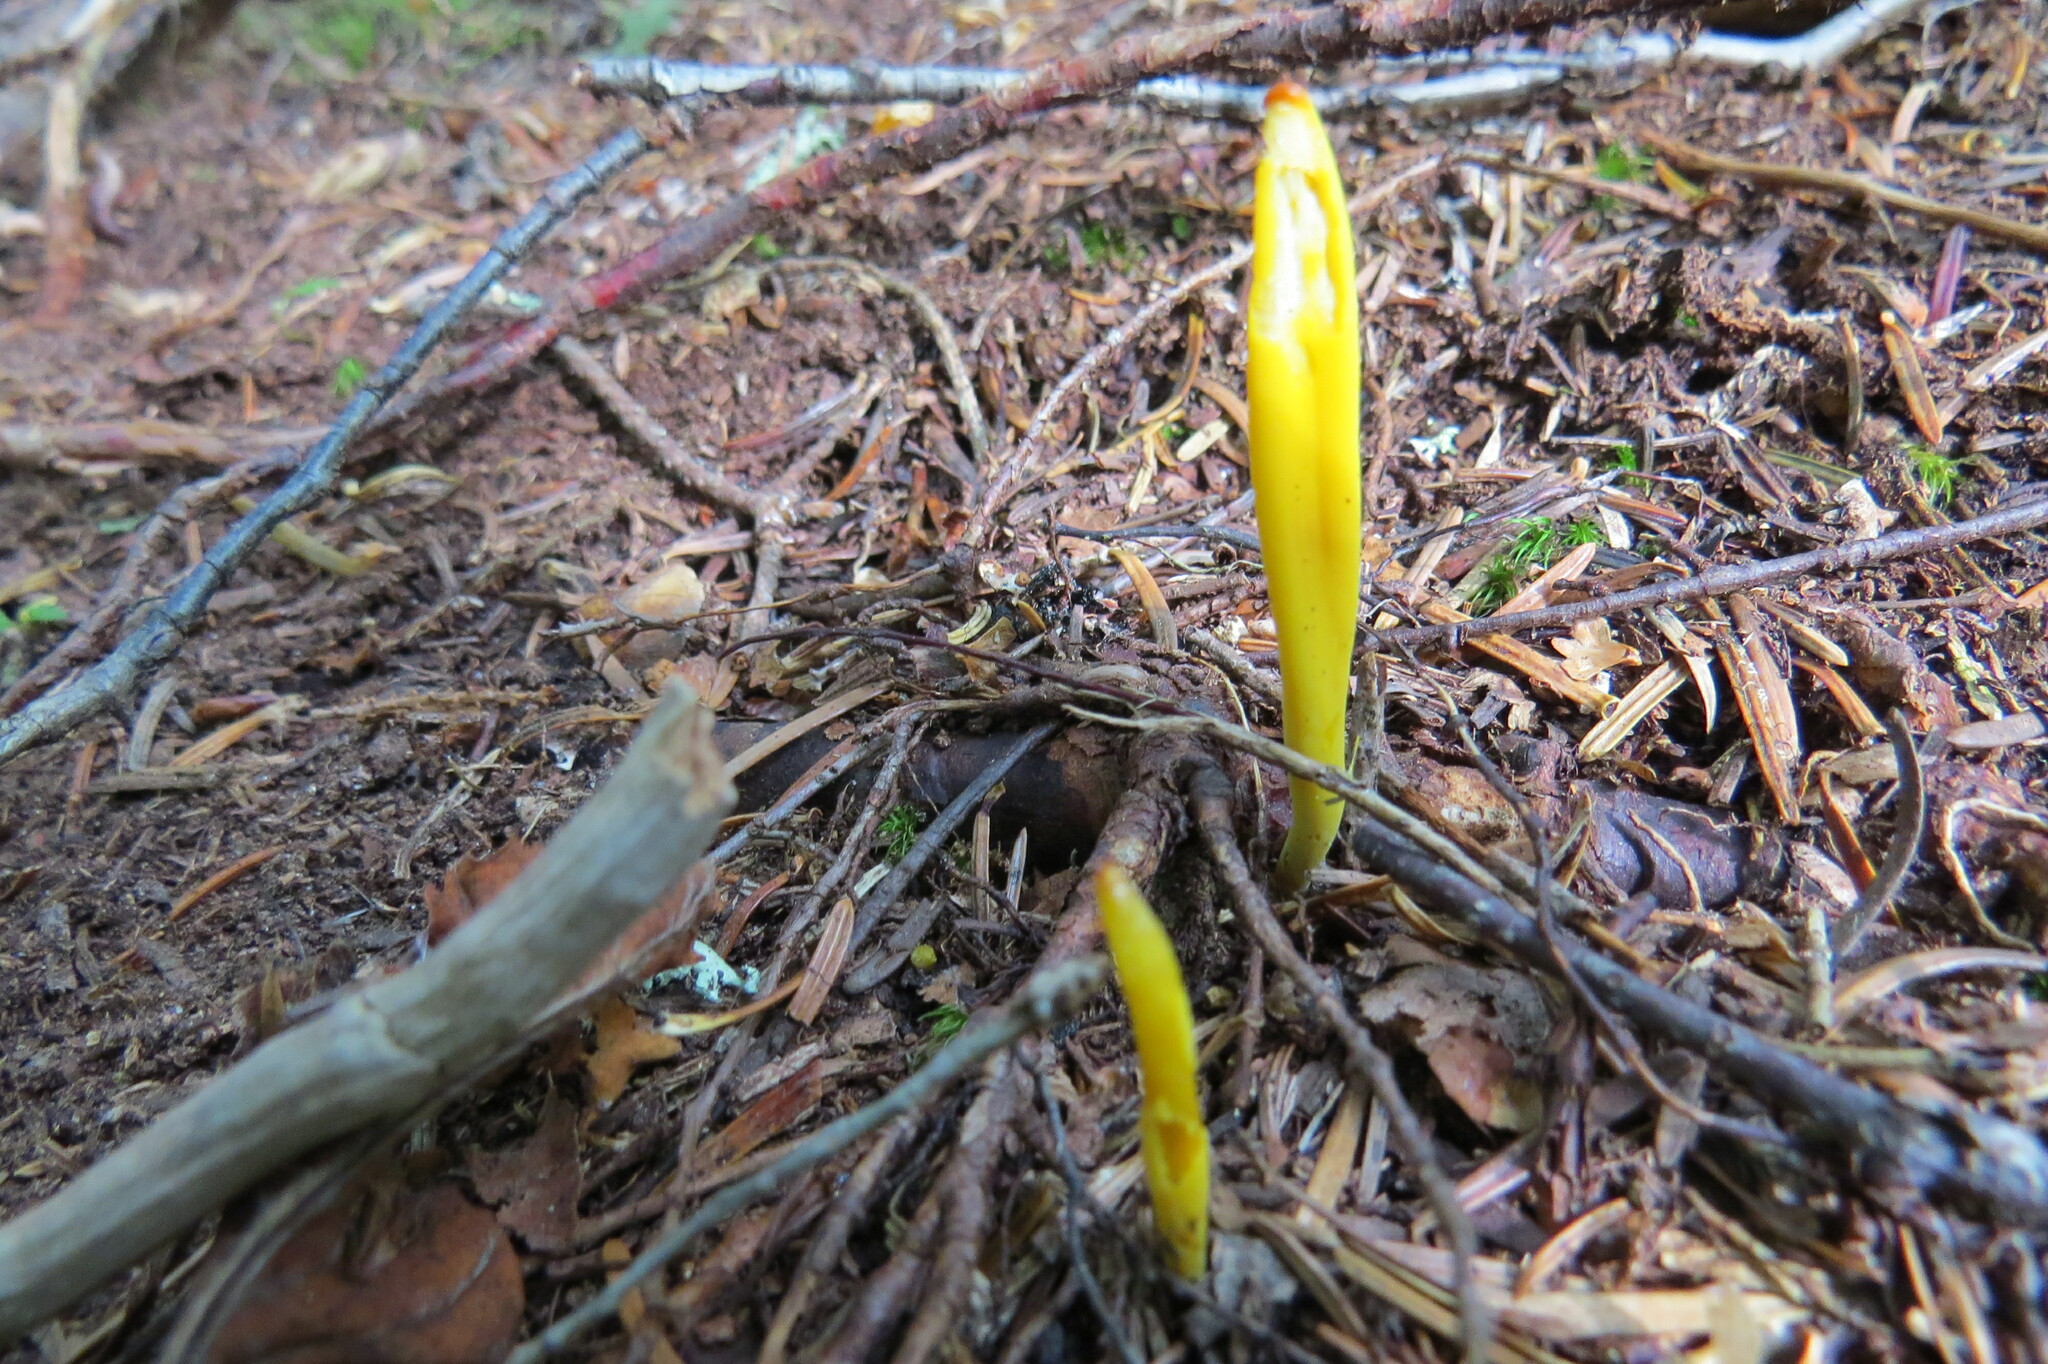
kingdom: Fungi
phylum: Basidiomycota
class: Agaricomycetes
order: Agaricales
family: Clavariaceae
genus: Clavulinopsis
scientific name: Clavulinopsis laeticolor
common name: Handsome club
